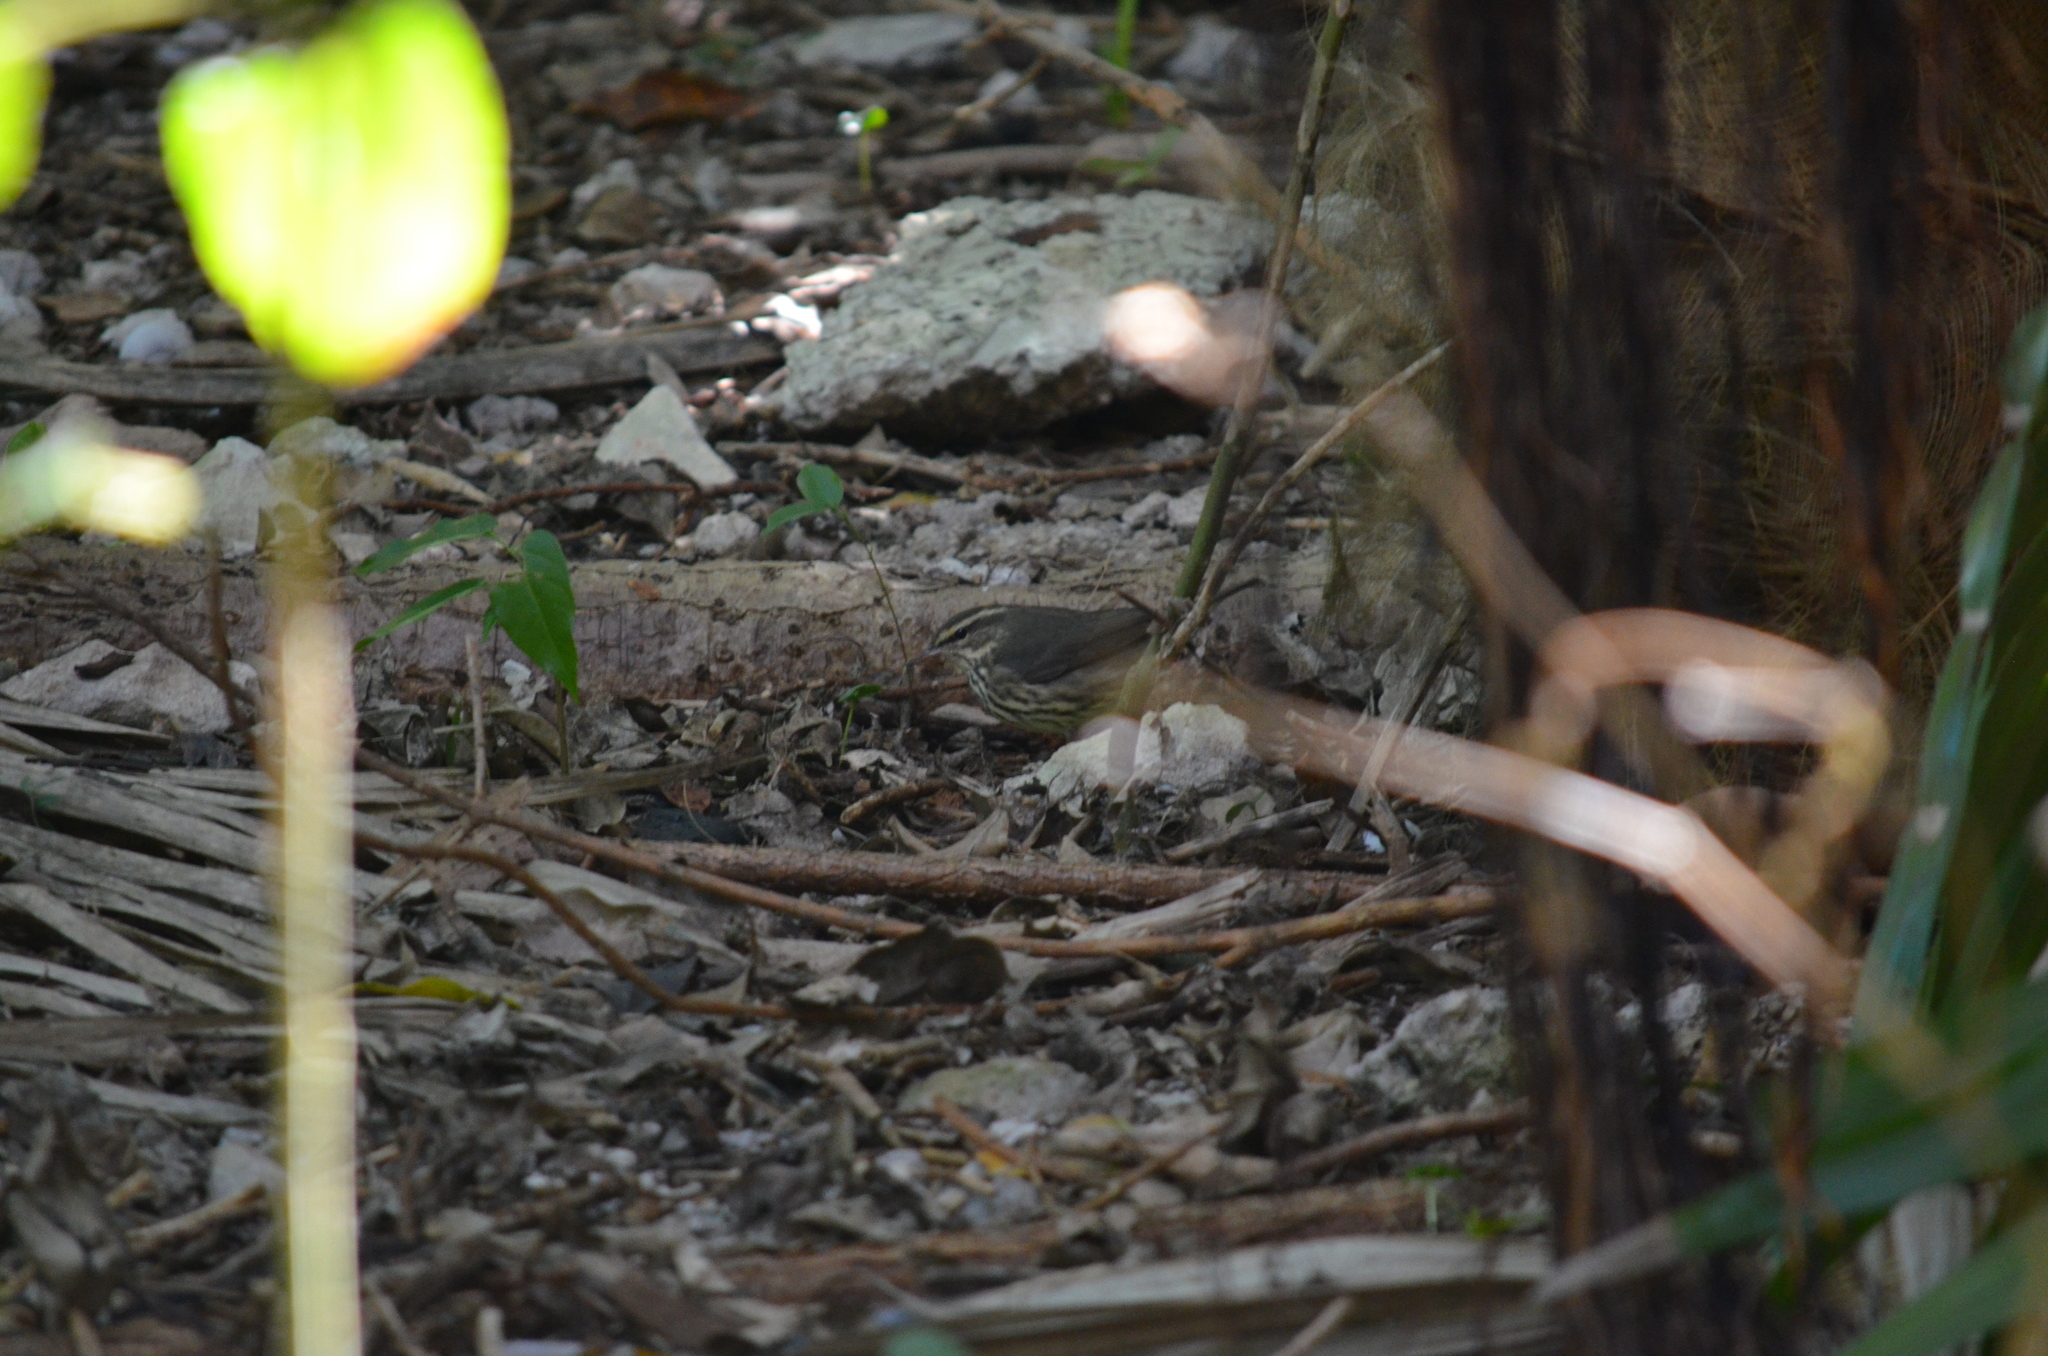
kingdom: Animalia
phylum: Chordata
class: Aves
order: Passeriformes
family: Parulidae
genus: Parkesia
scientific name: Parkesia noveboracensis
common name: Northern waterthrush
